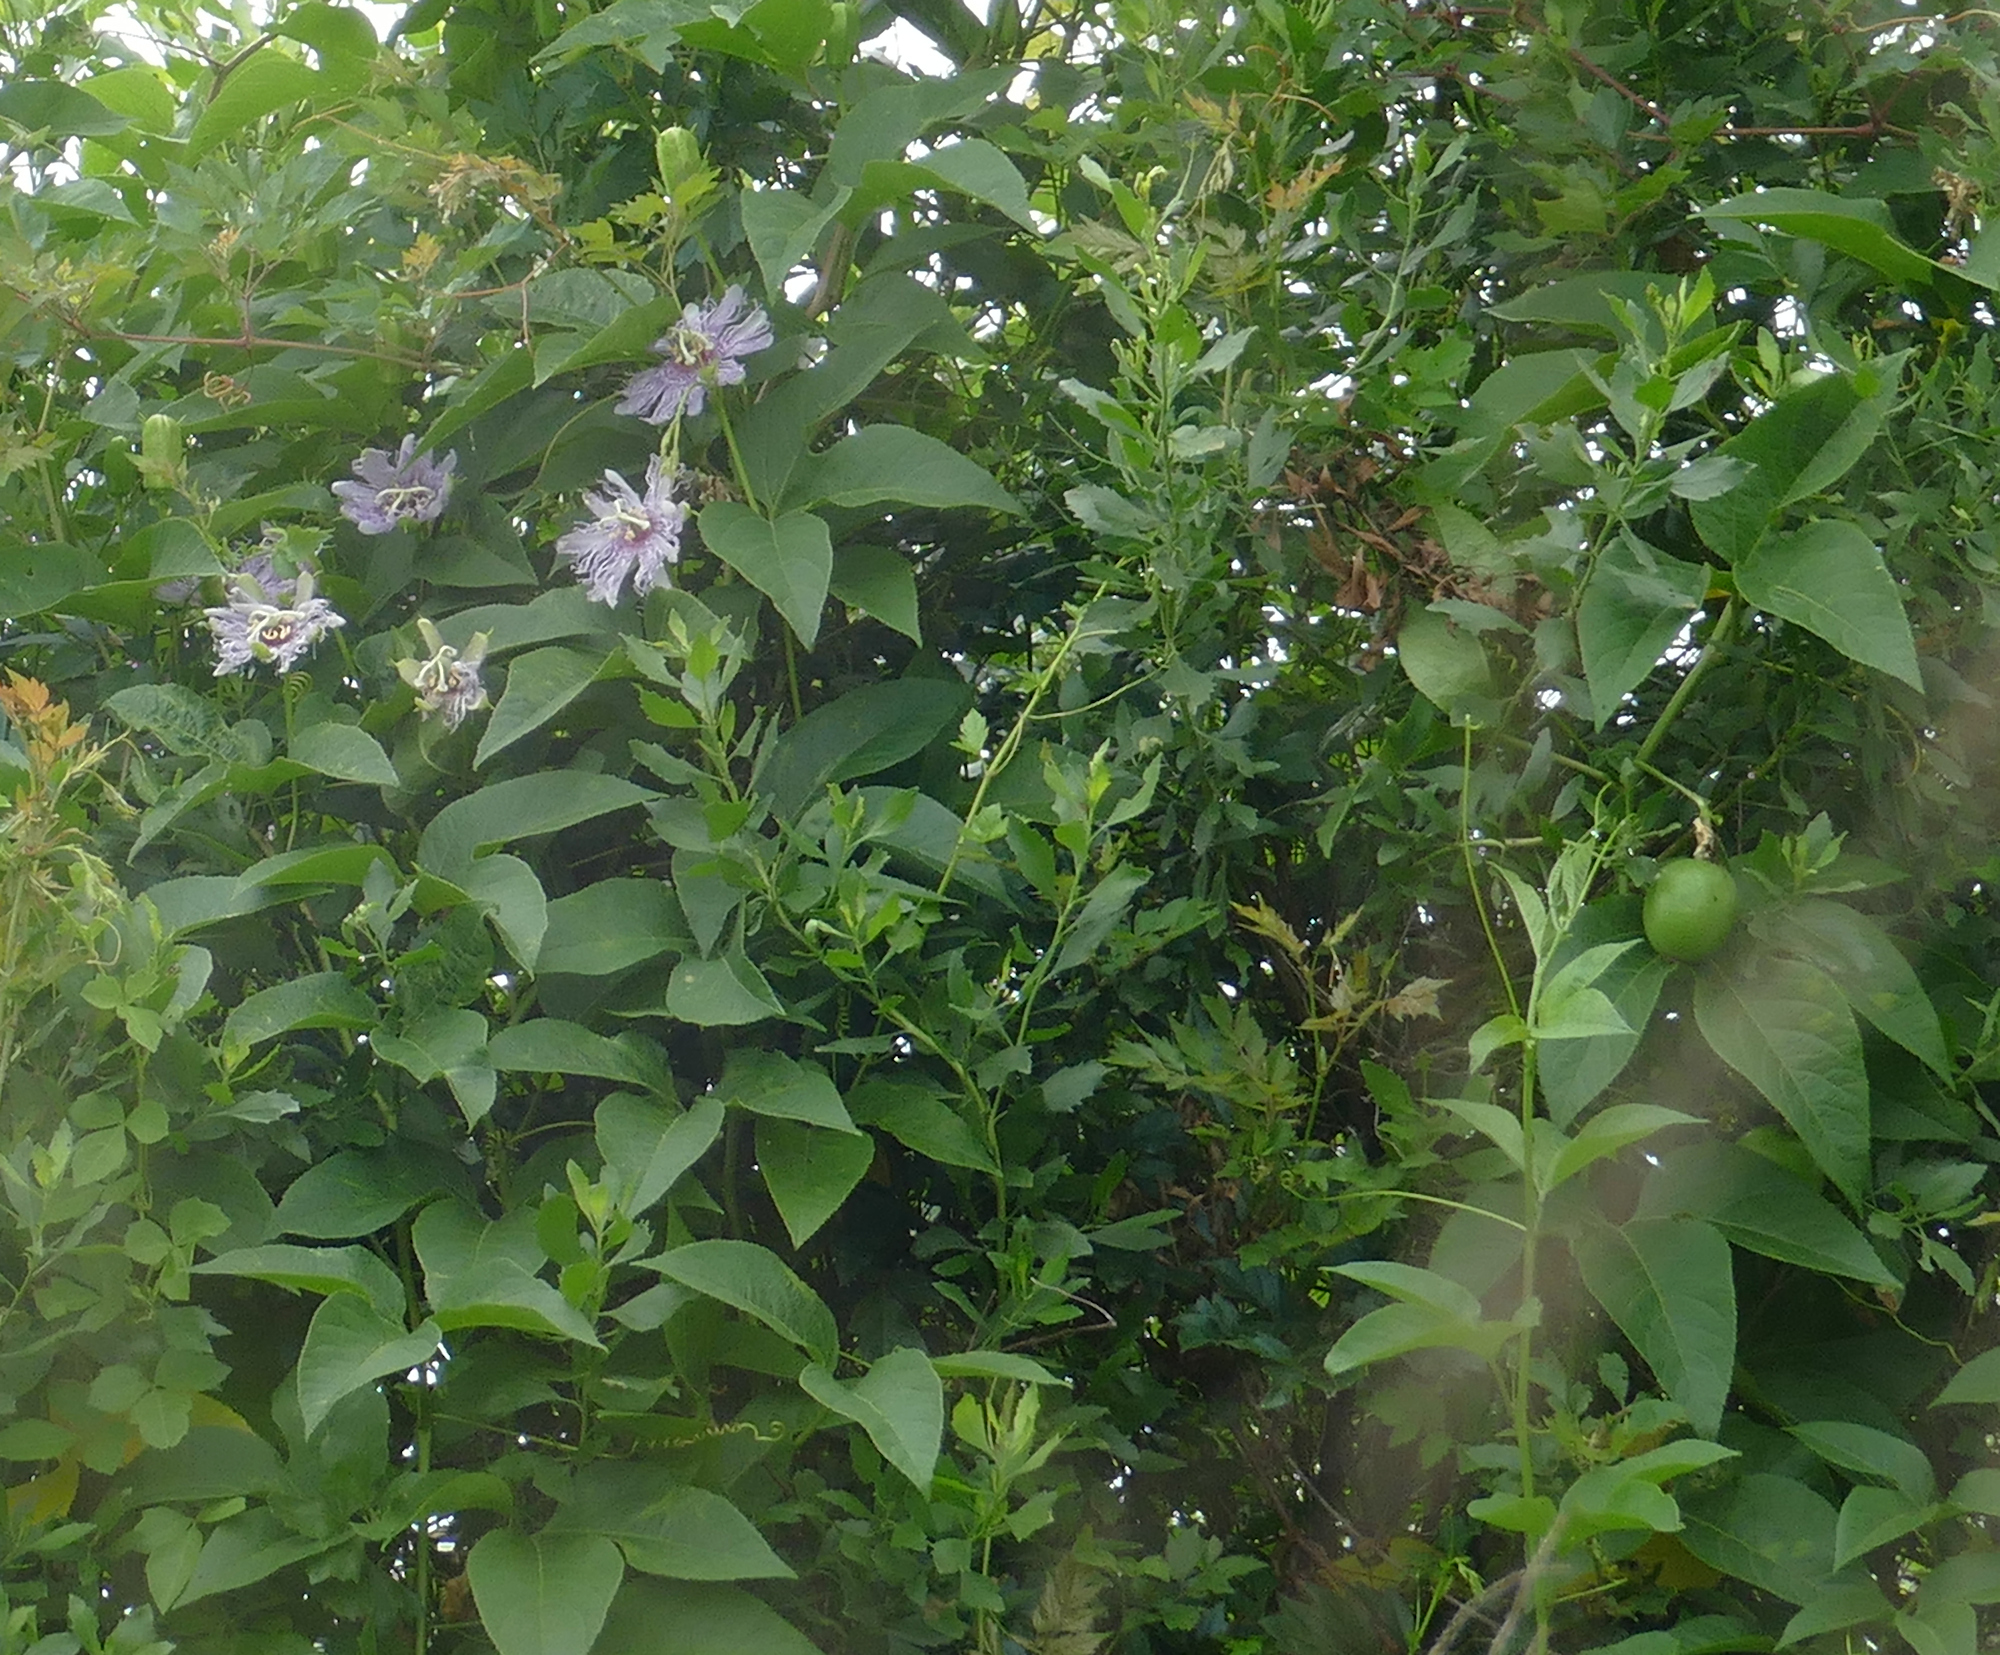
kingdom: Plantae
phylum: Tracheophyta
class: Magnoliopsida
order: Malpighiales
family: Passifloraceae
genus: Passiflora
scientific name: Passiflora incarnata
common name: Apricot-vine
